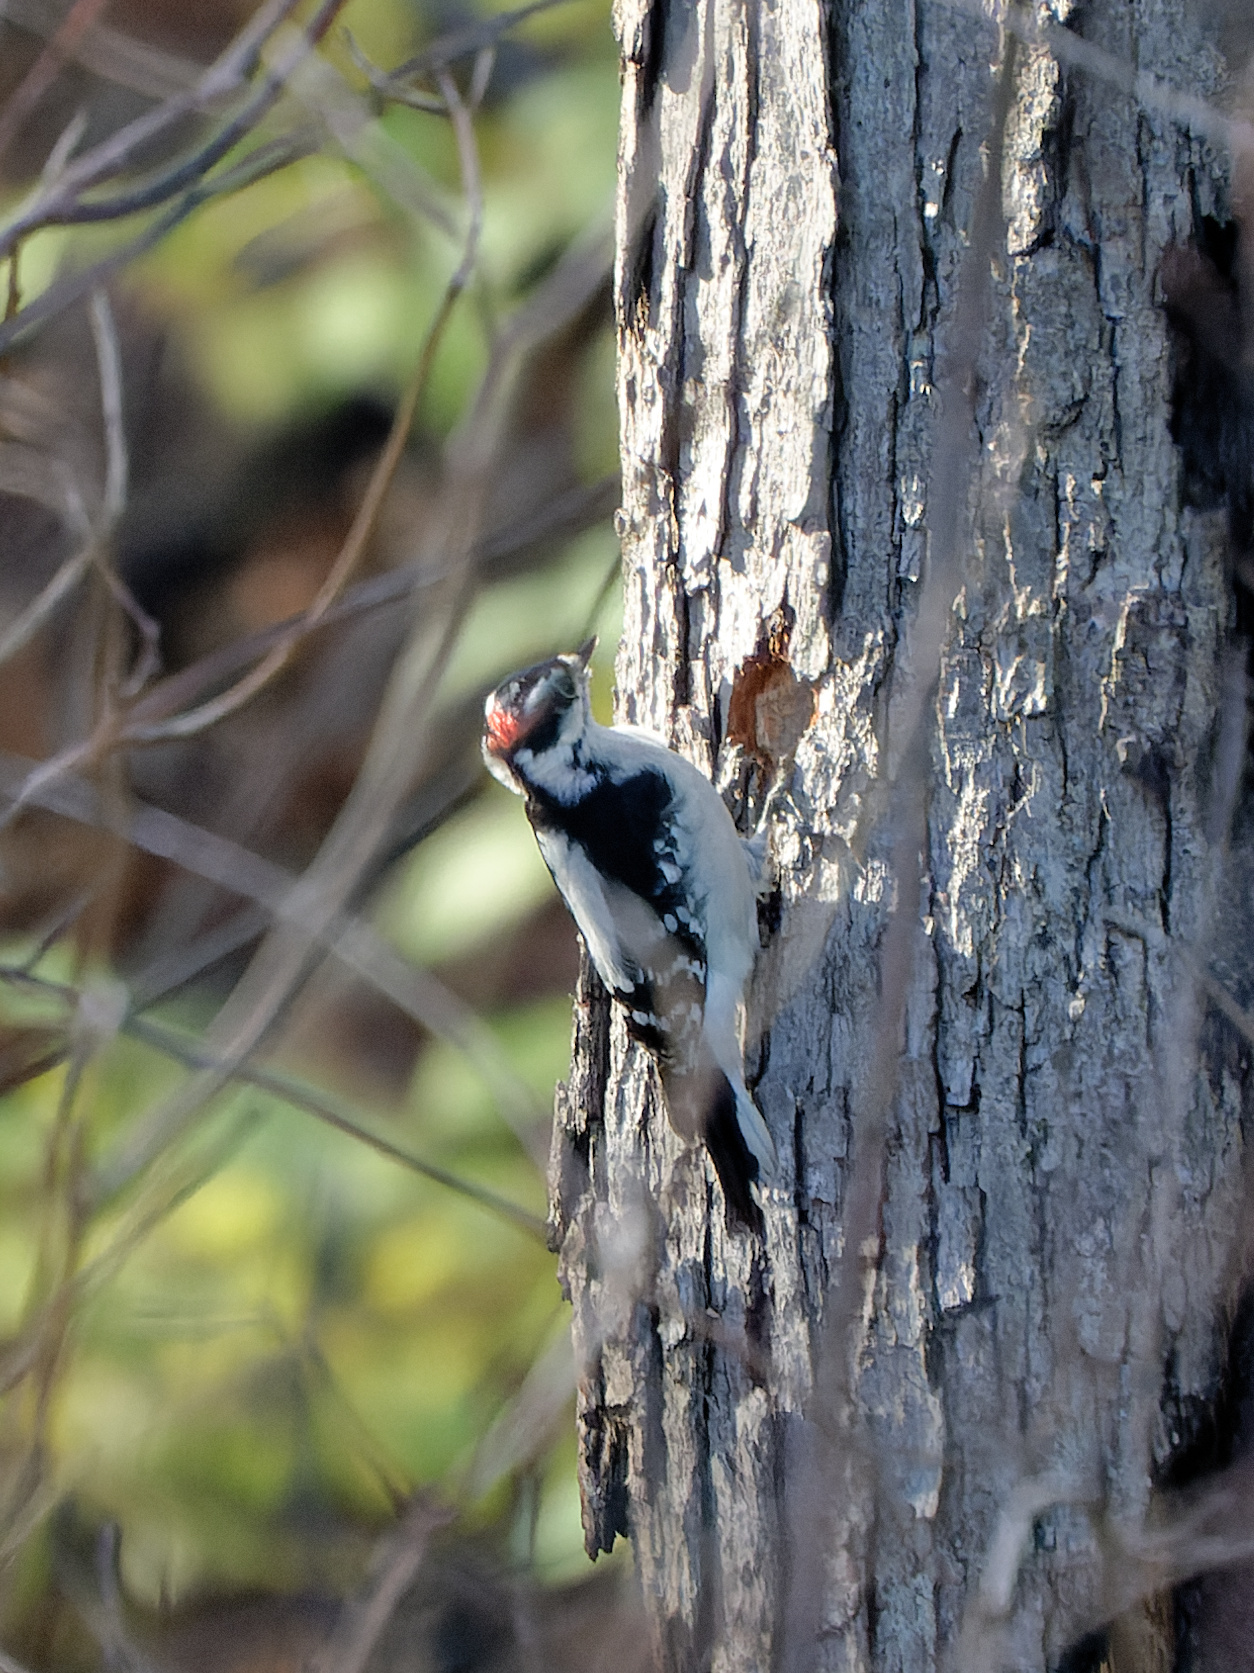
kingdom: Animalia
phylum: Chordata
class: Aves
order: Piciformes
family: Picidae
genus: Dryobates
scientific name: Dryobates pubescens
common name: Downy woodpecker
